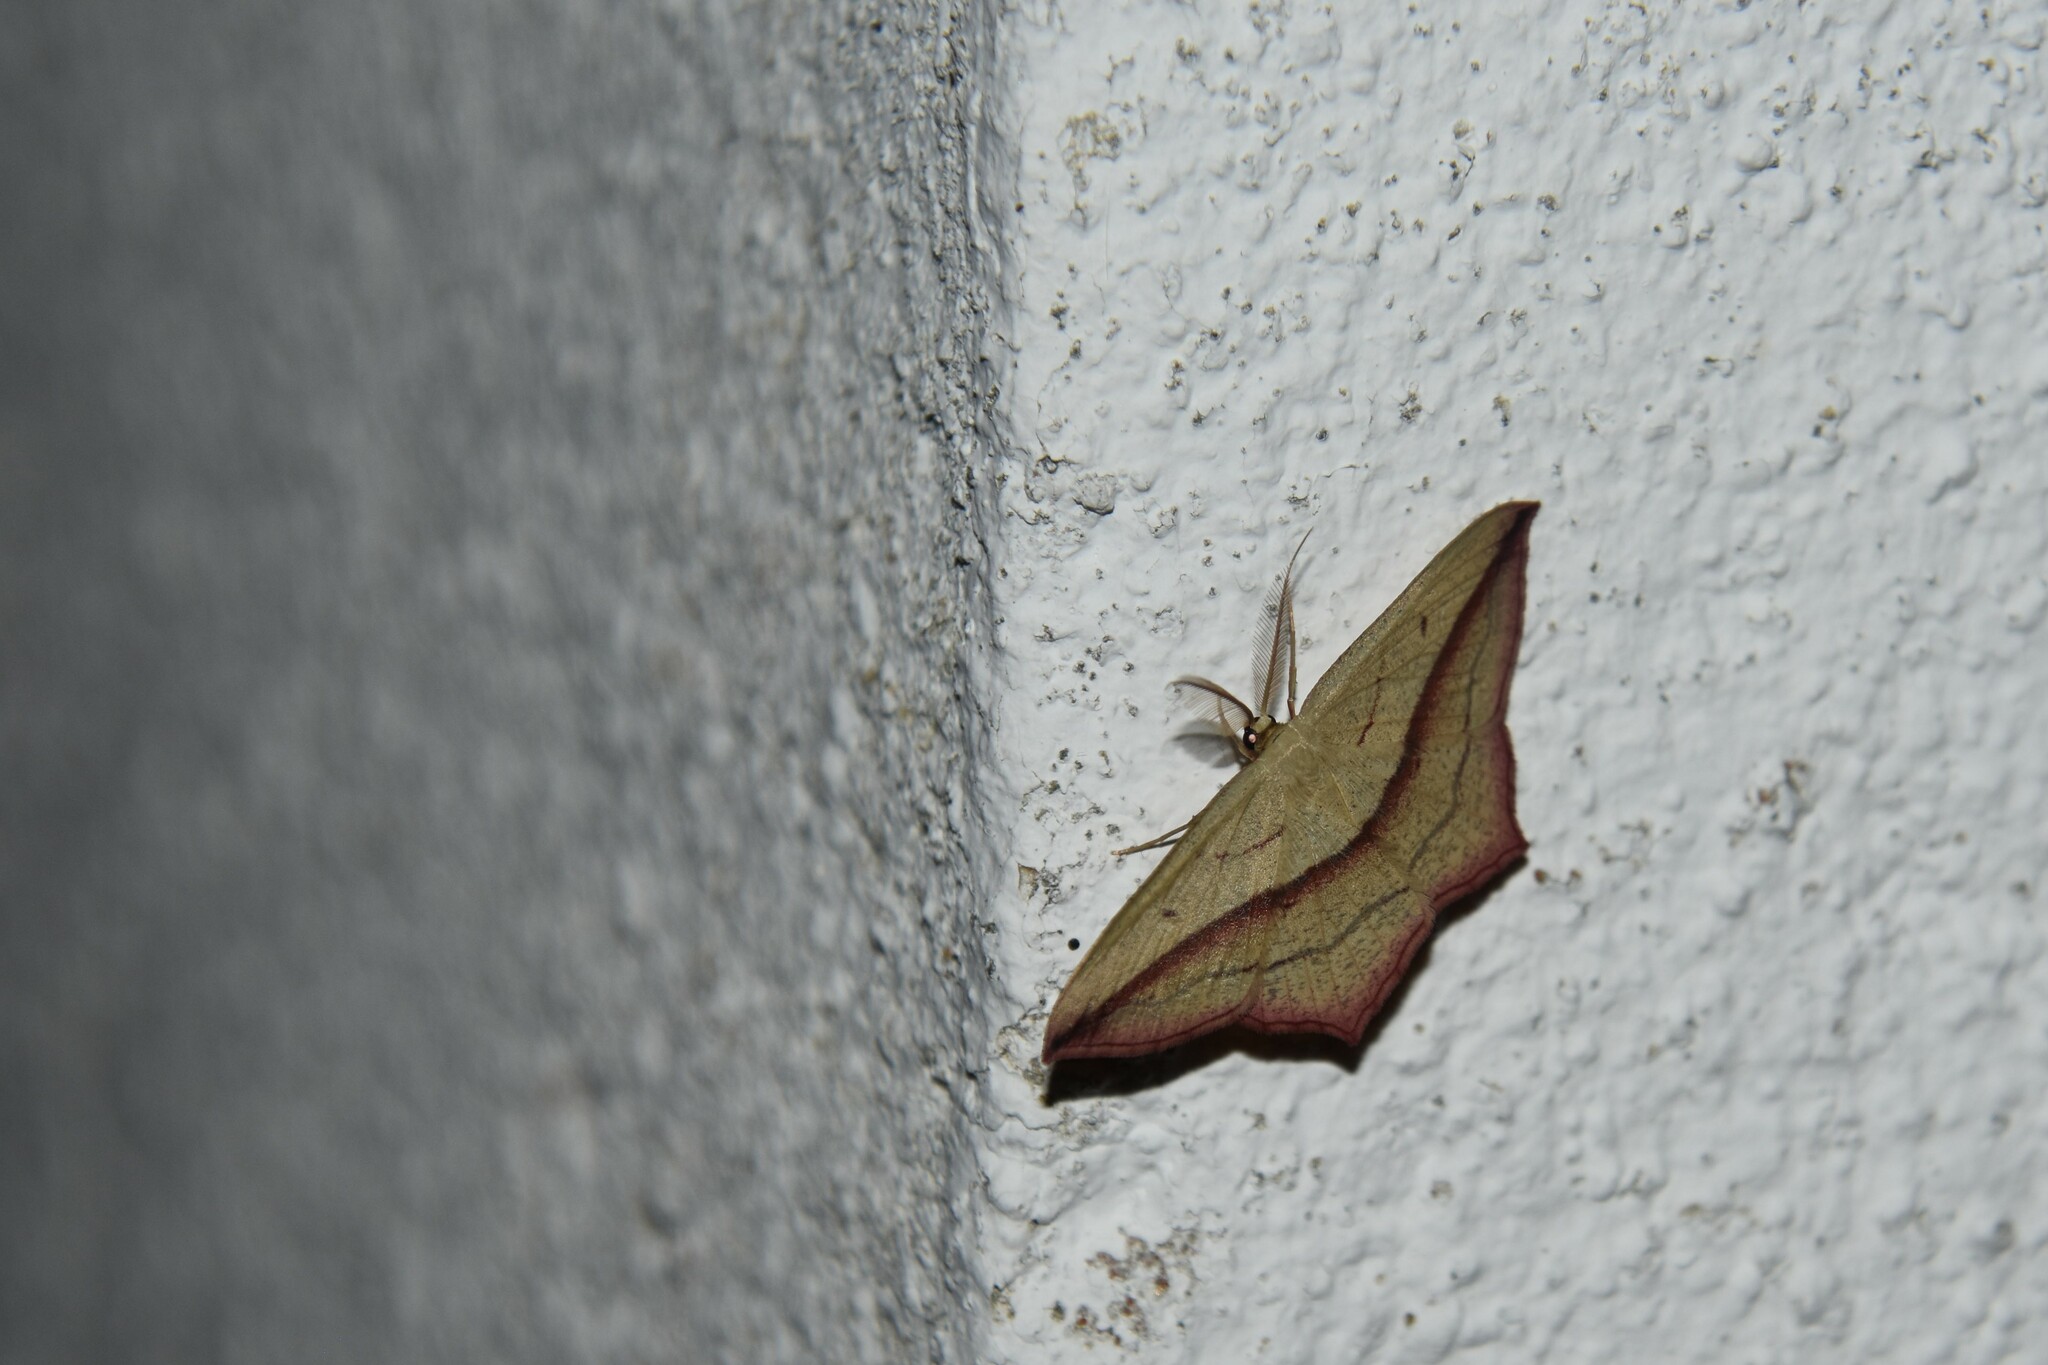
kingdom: Animalia
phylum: Arthropoda
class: Insecta
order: Lepidoptera
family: Geometridae
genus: Timandra
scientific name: Timandra comae
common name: Blood-vein
